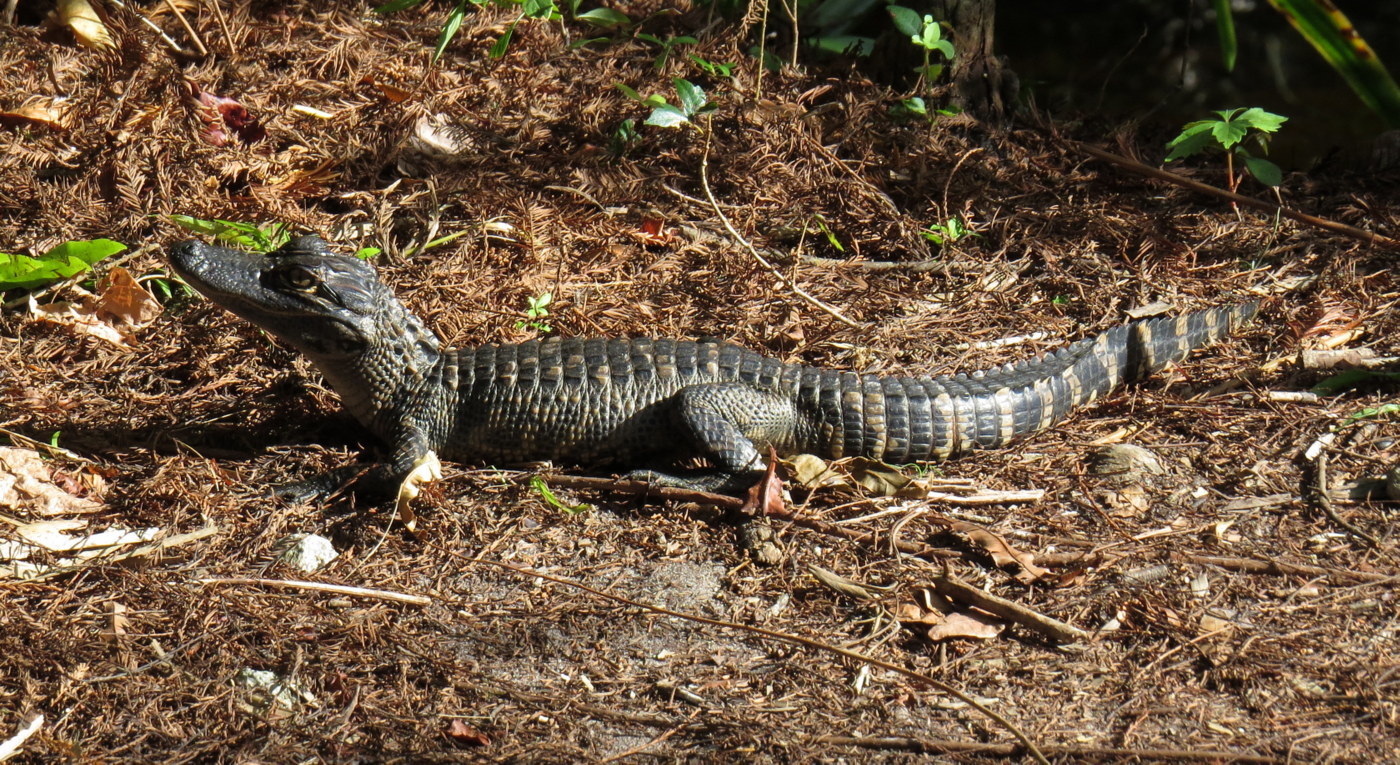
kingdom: Animalia
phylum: Chordata
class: Crocodylia
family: Alligatoridae
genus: Alligator
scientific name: Alligator mississippiensis
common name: American alligator
